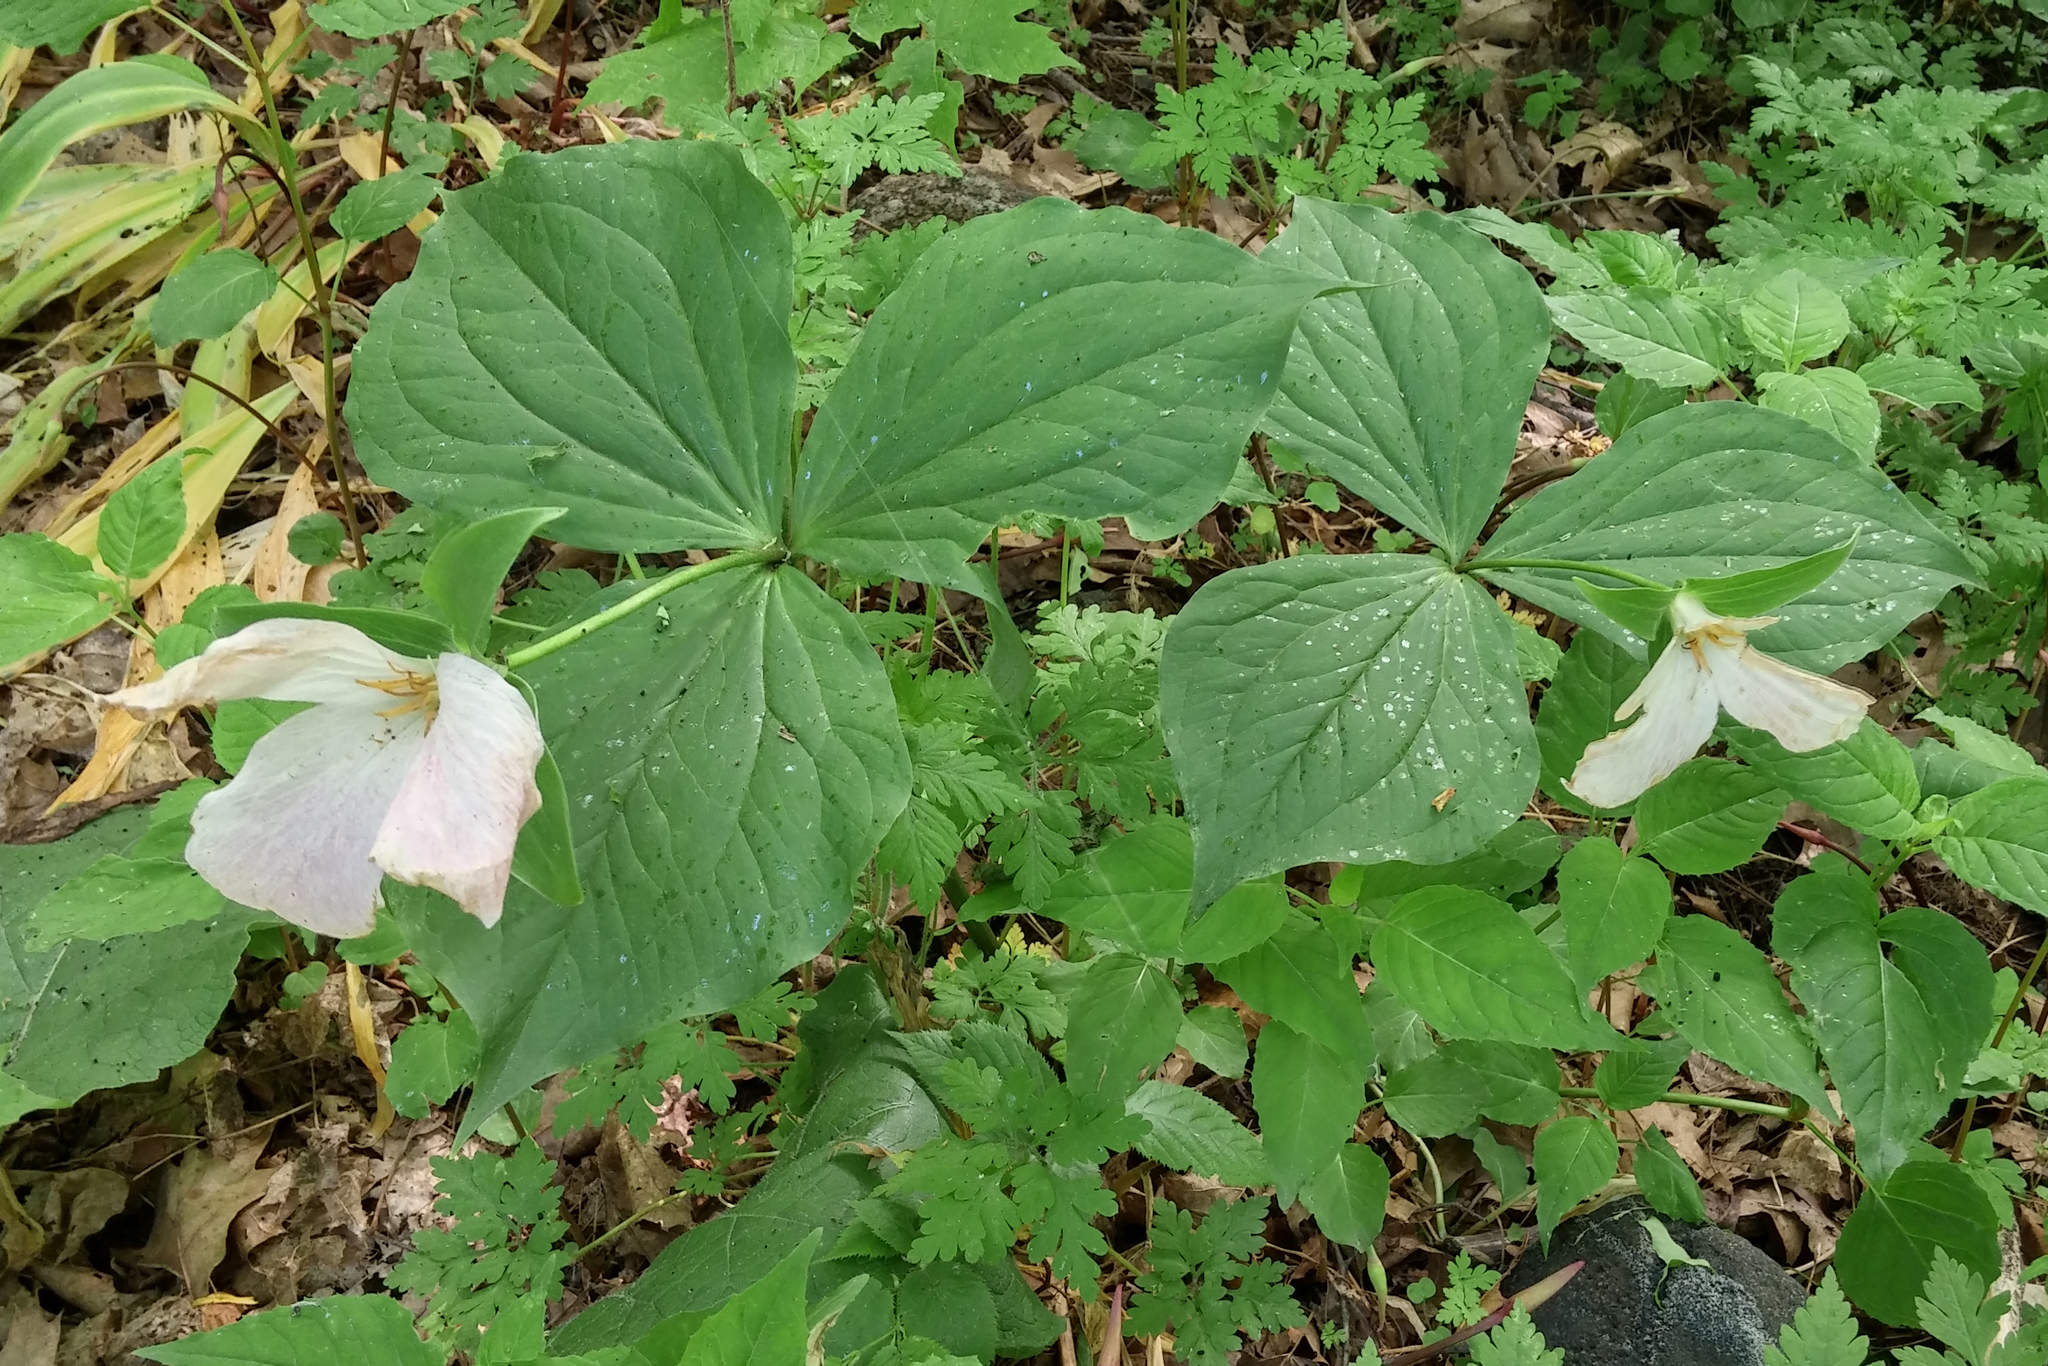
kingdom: Plantae
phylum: Tracheophyta
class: Liliopsida
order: Liliales
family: Melanthiaceae
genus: Trillium
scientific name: Trillium grandiflorum
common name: Great white trillium
